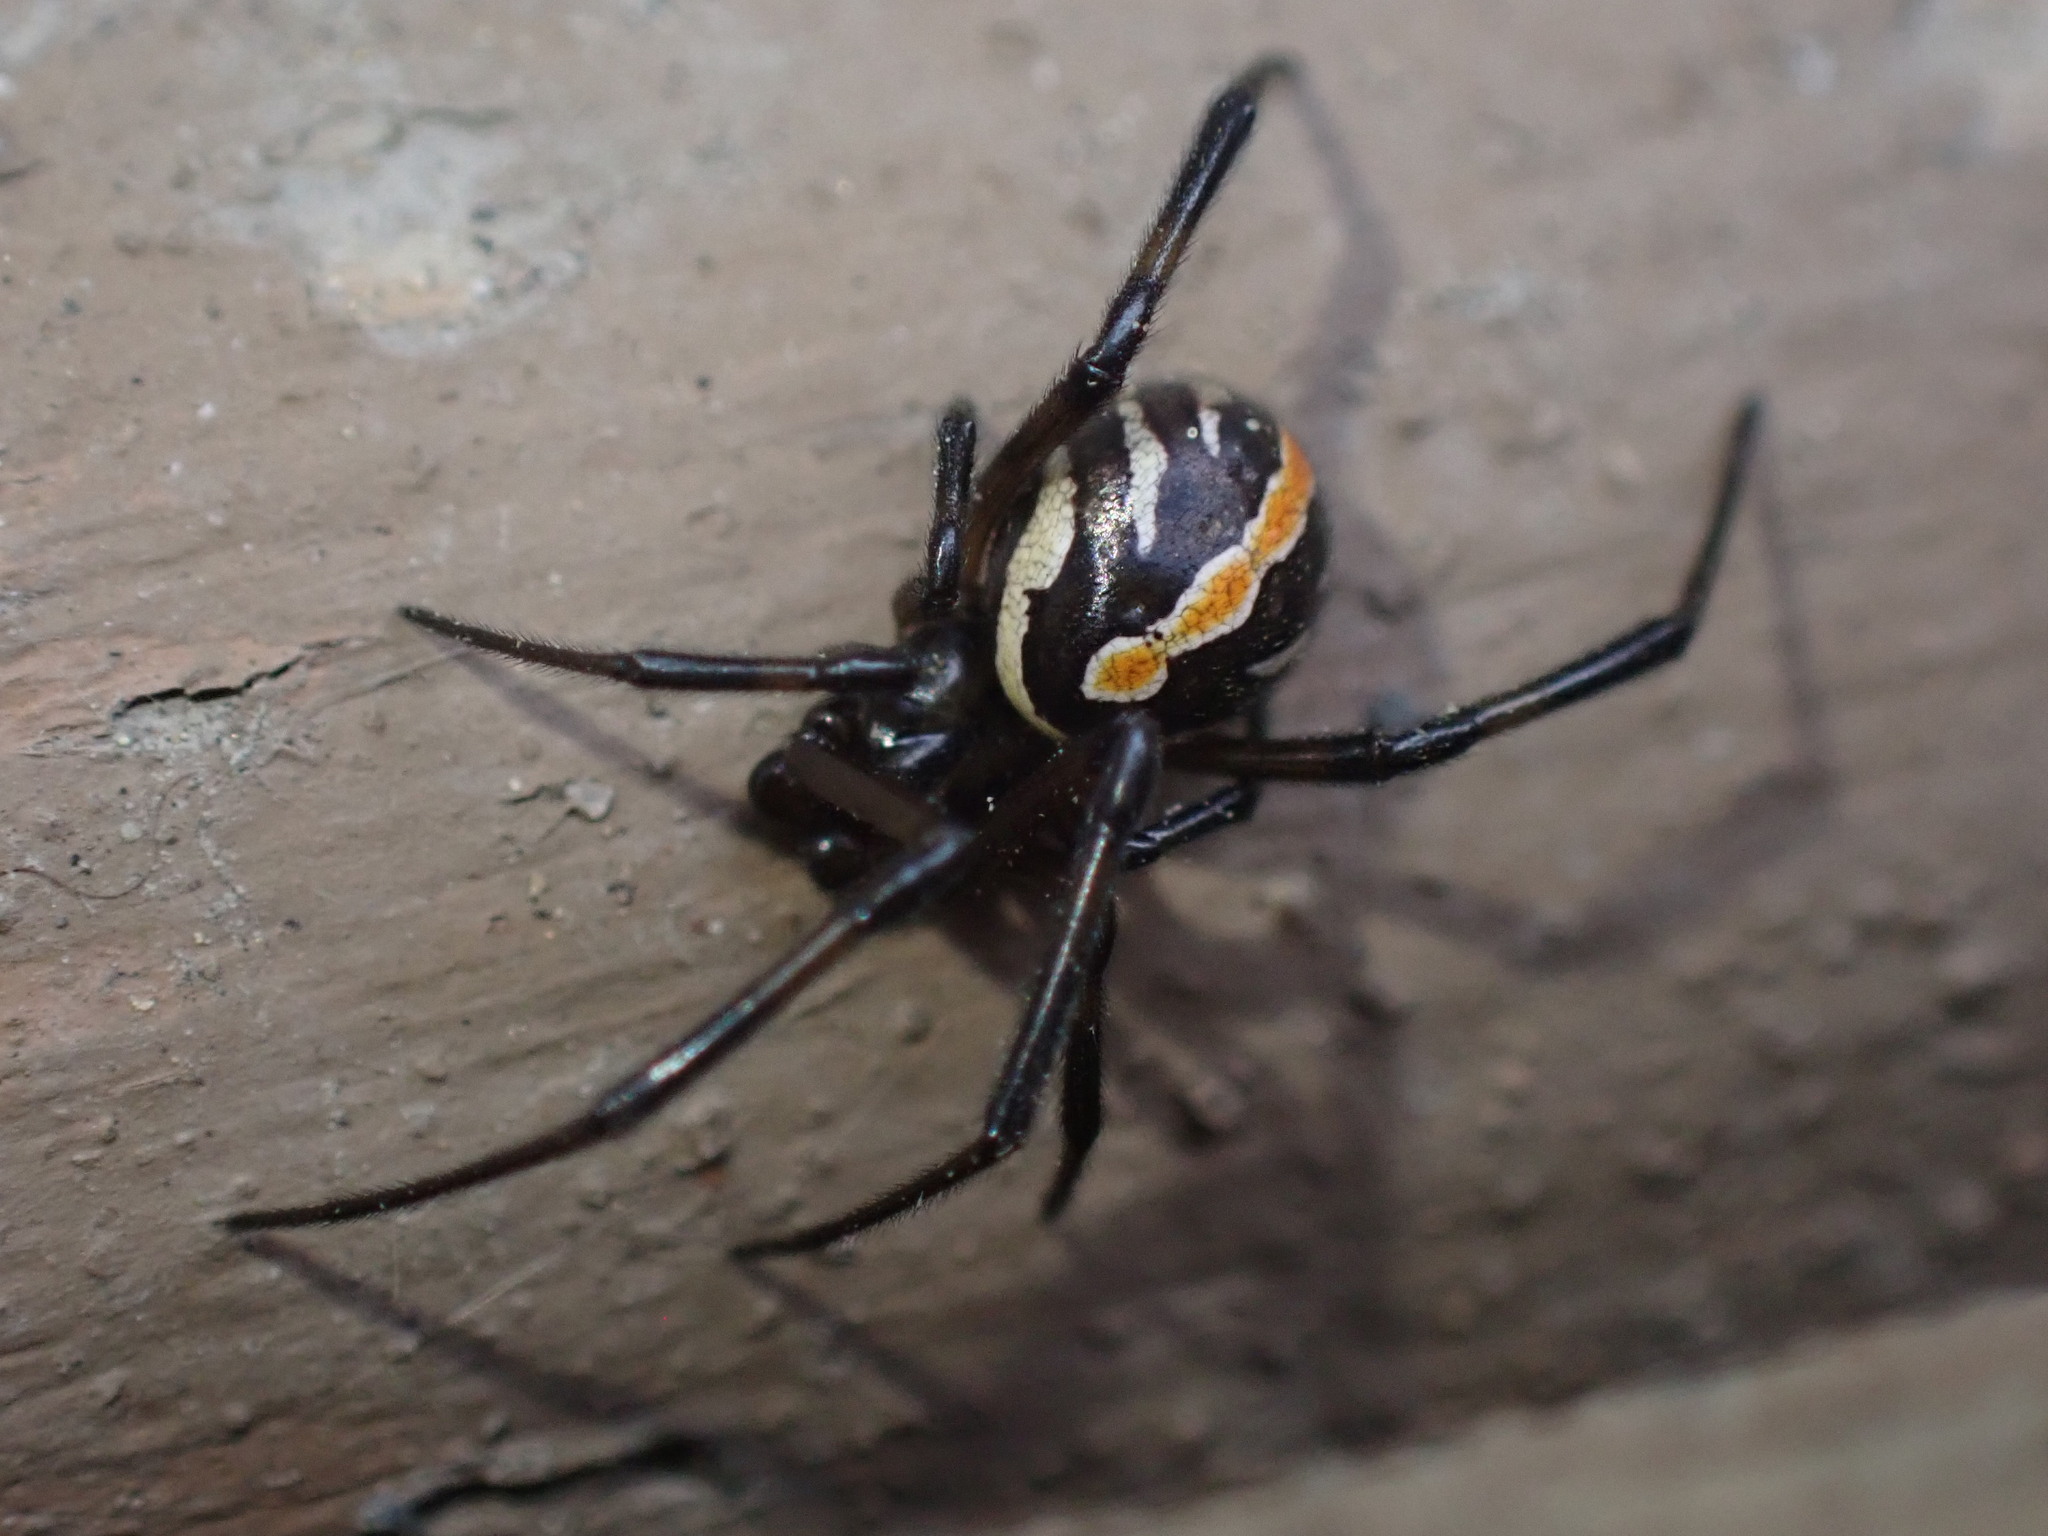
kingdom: Animalia
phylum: Arthropoda
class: Arachnida
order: Araneae
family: Theridiidae
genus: Latrodectus
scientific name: Latrodectus hesperus
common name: Western black widow
